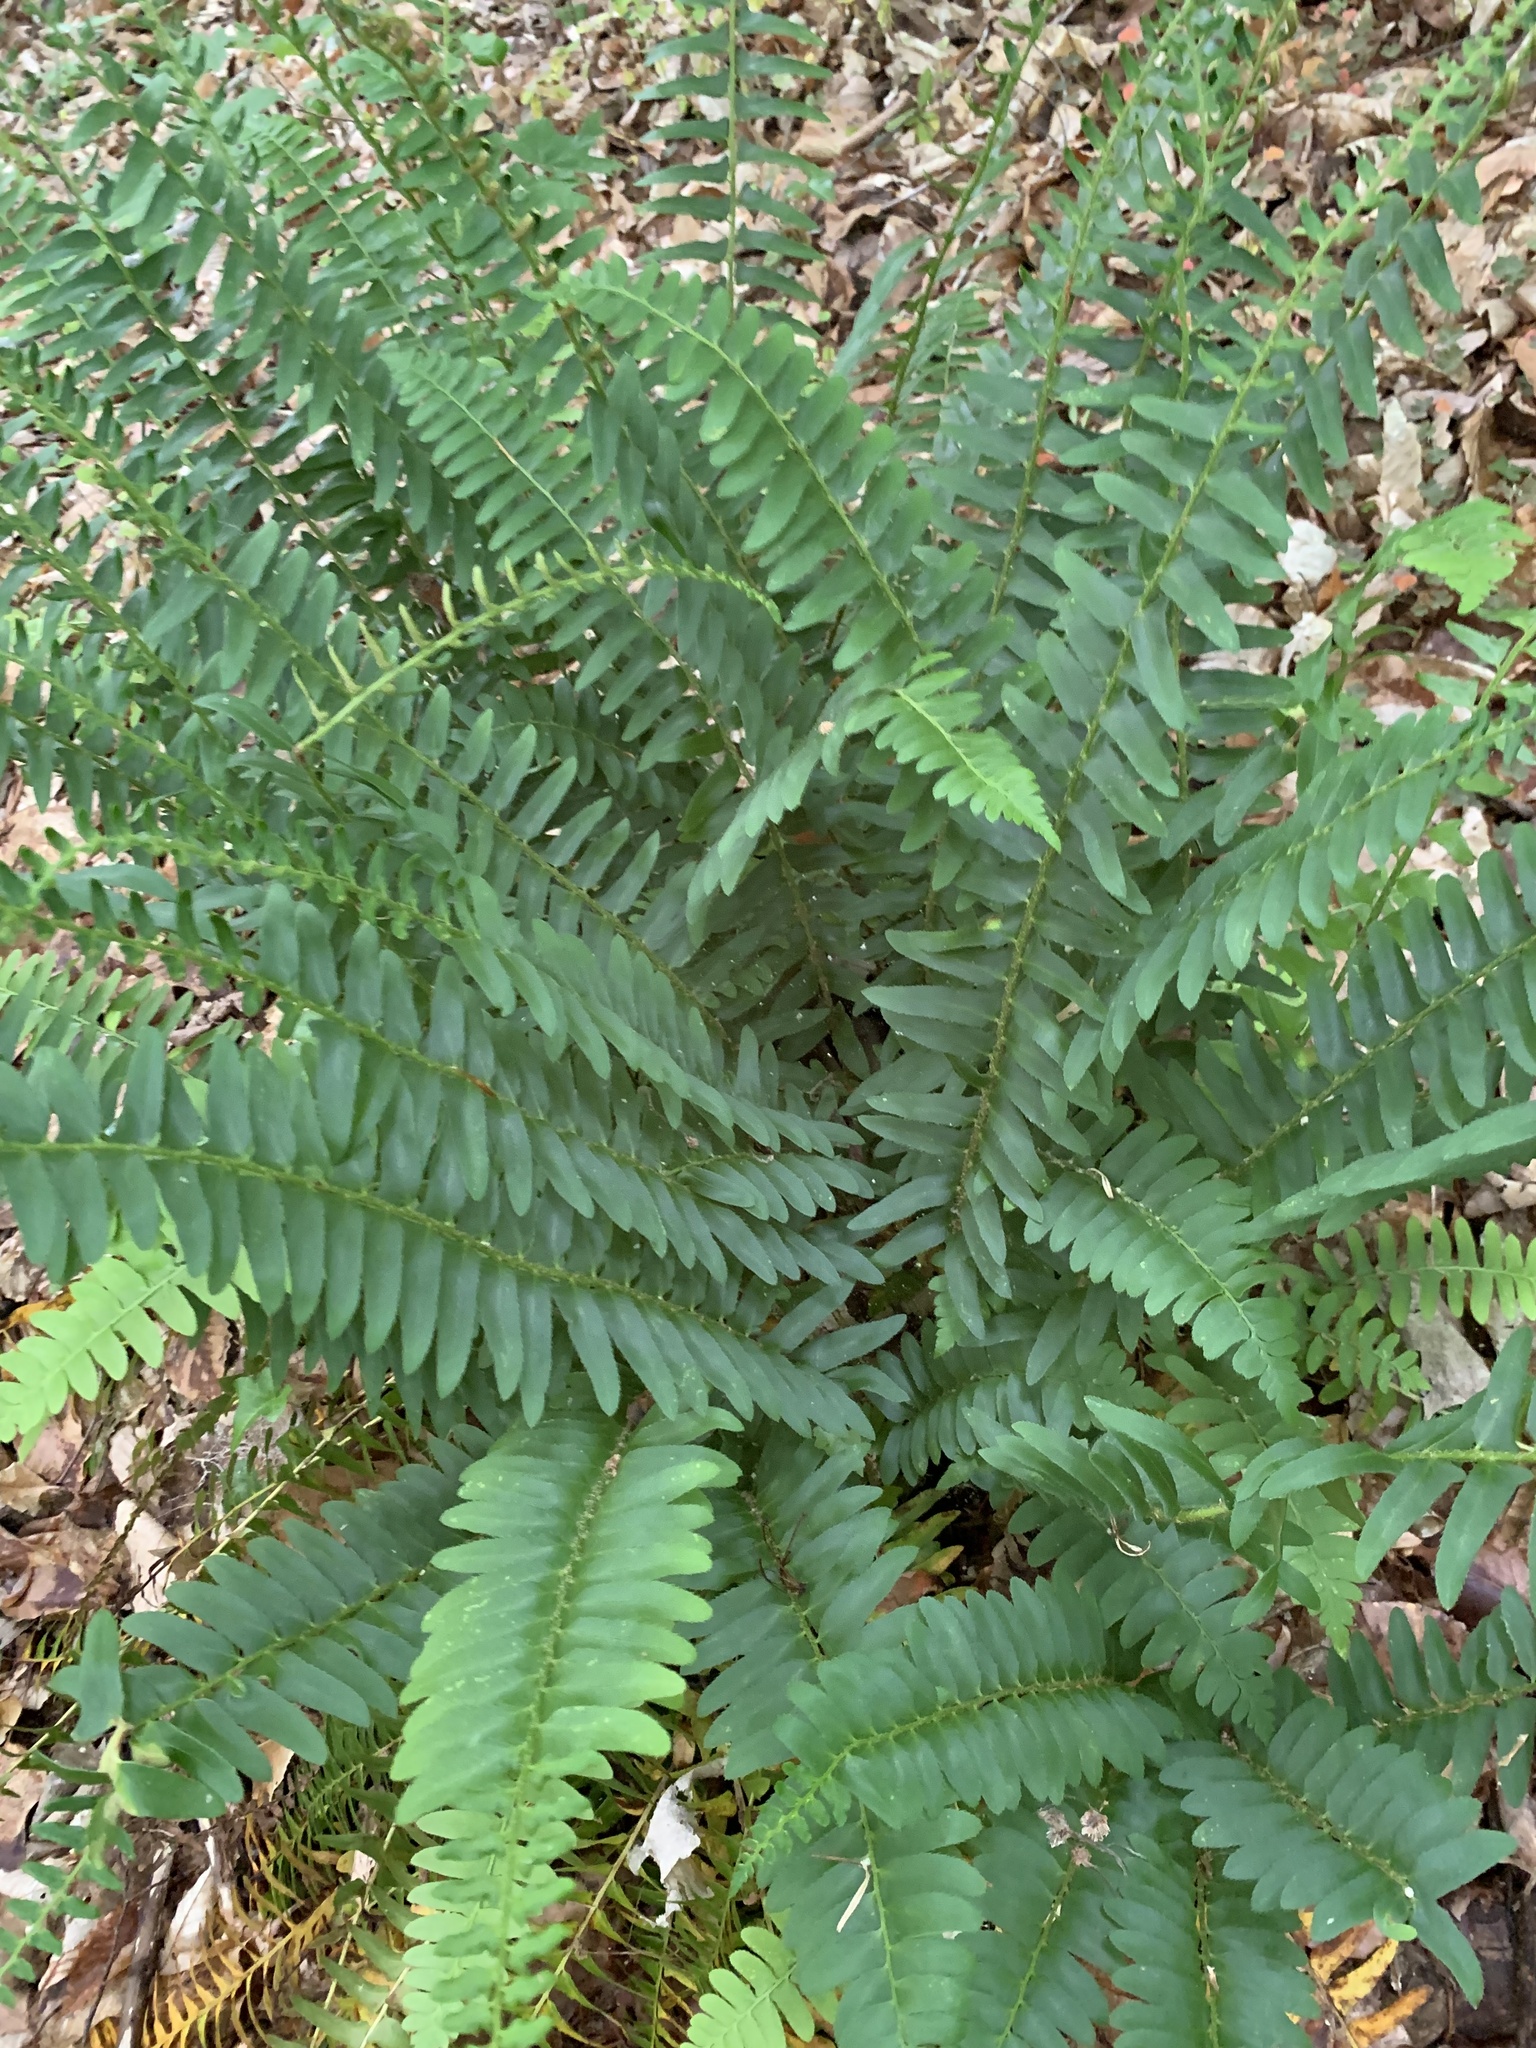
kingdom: Plantae
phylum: Tracheophyta
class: Polypodiopsida
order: Polypodiales
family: Dryopteridaceae
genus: Polystichum
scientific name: Polystichum acrostichoides
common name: Christmas fern
